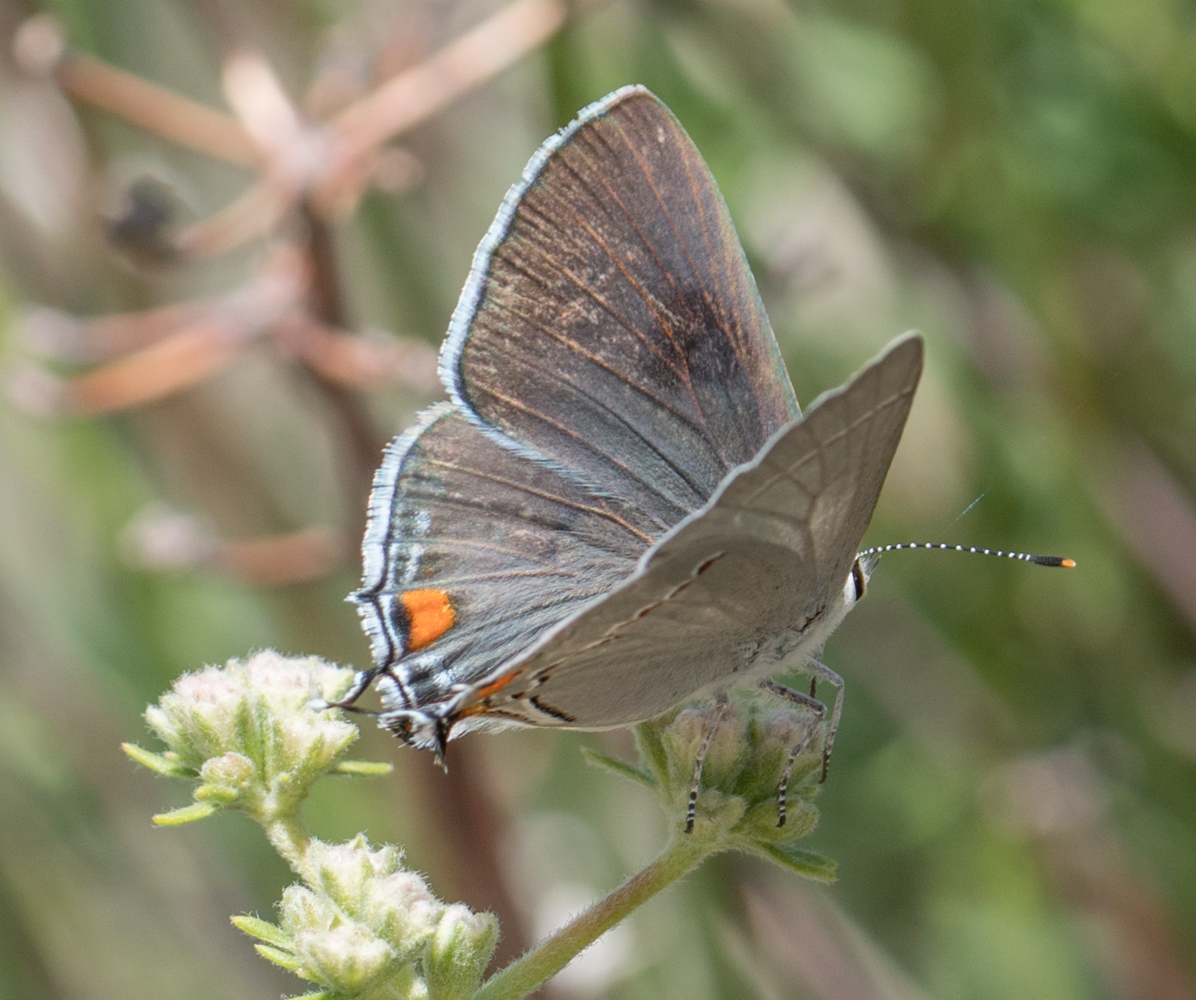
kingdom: Animalia
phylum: Arthropoda
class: Insecta
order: Lepidoptera
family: Lycaenidae
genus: Strymon
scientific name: Strymon melinus
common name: Gray hairstreak
